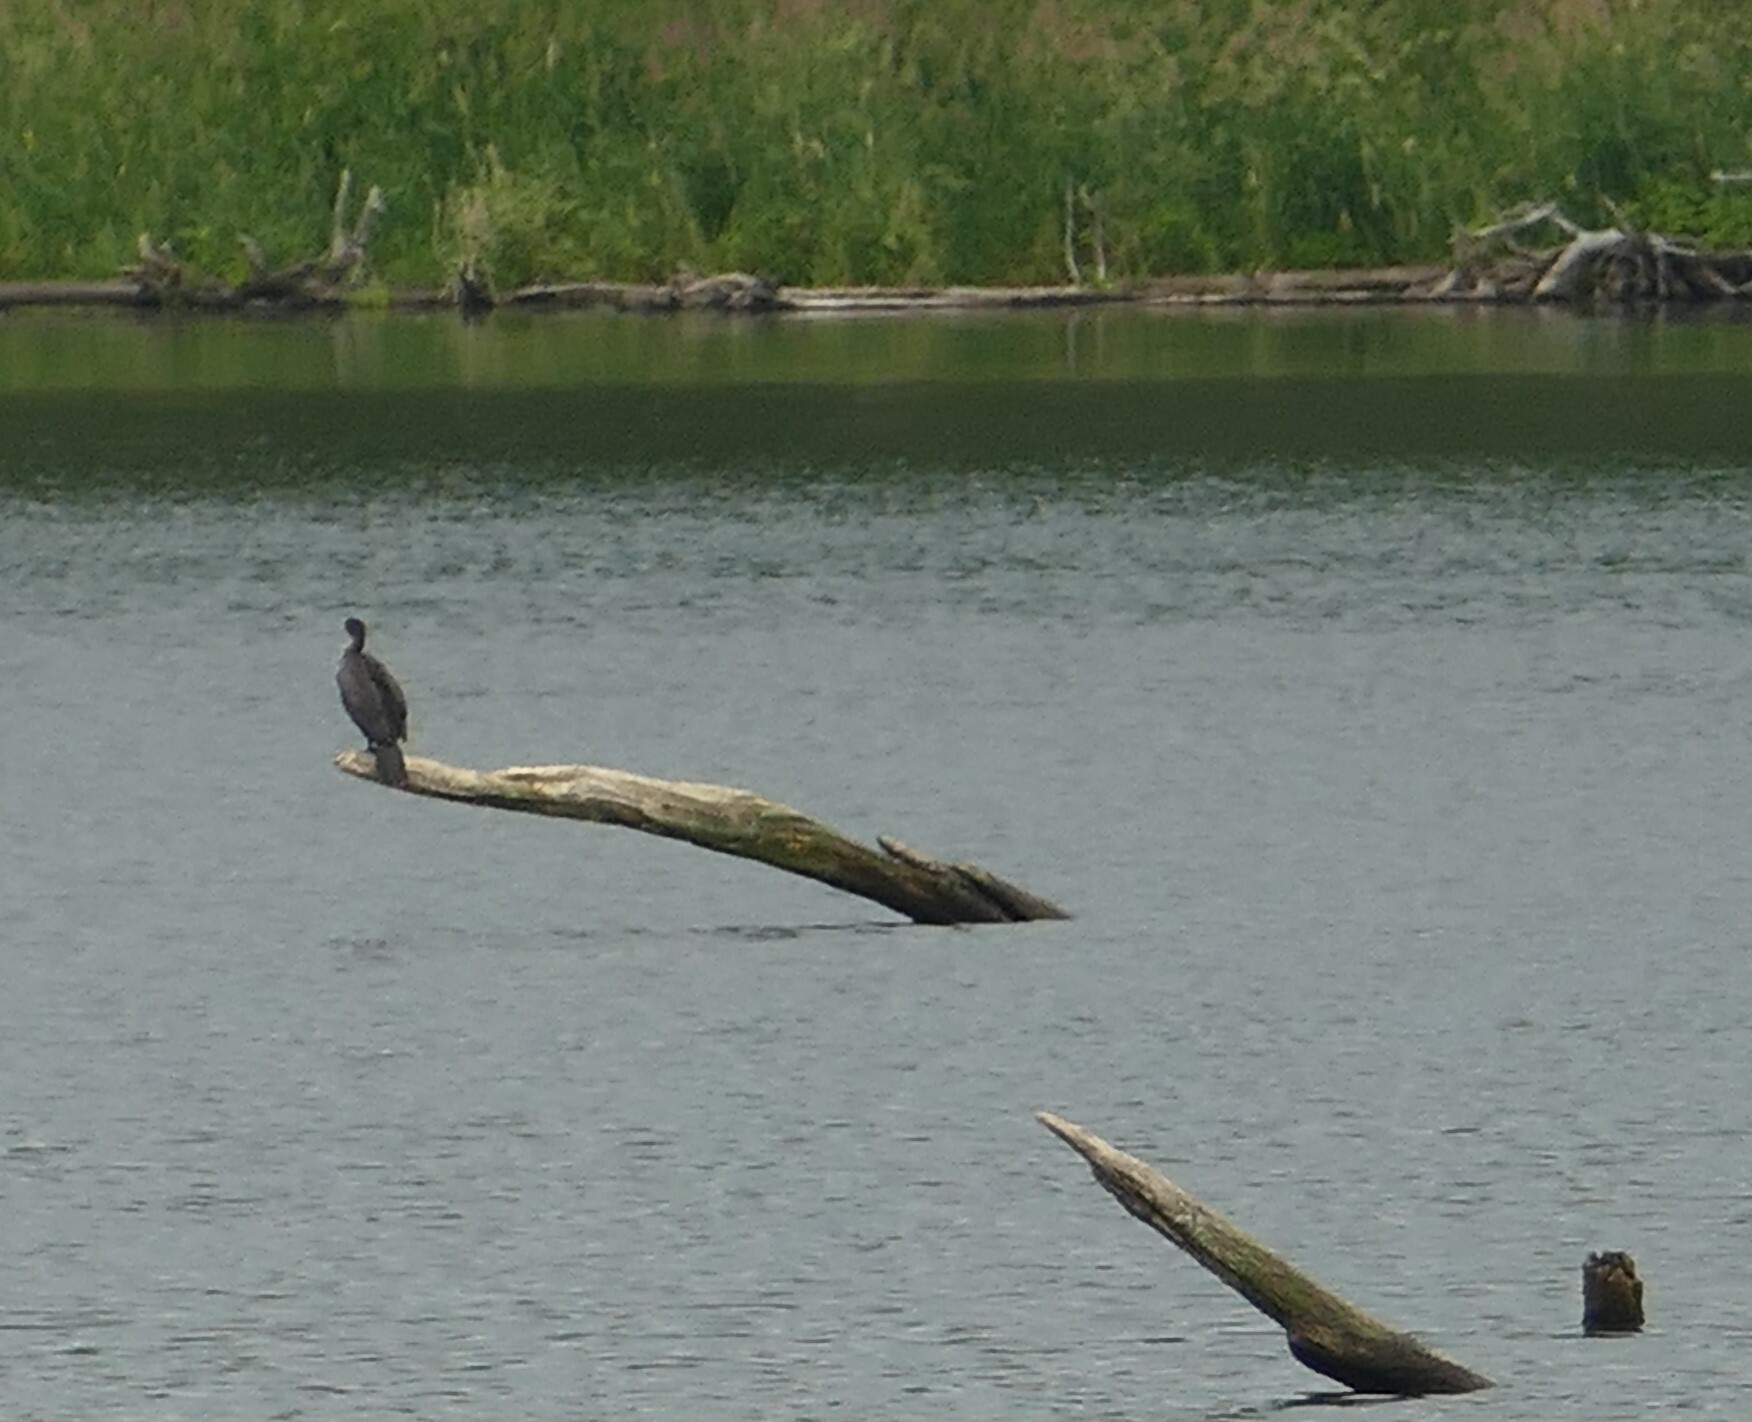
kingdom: Animalia
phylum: Chordata
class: Aves
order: Suliformes
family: Phalacrocoracidae
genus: Phalacrocorax
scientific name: Phalacrocorax auritus
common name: Double-crested cormorant
